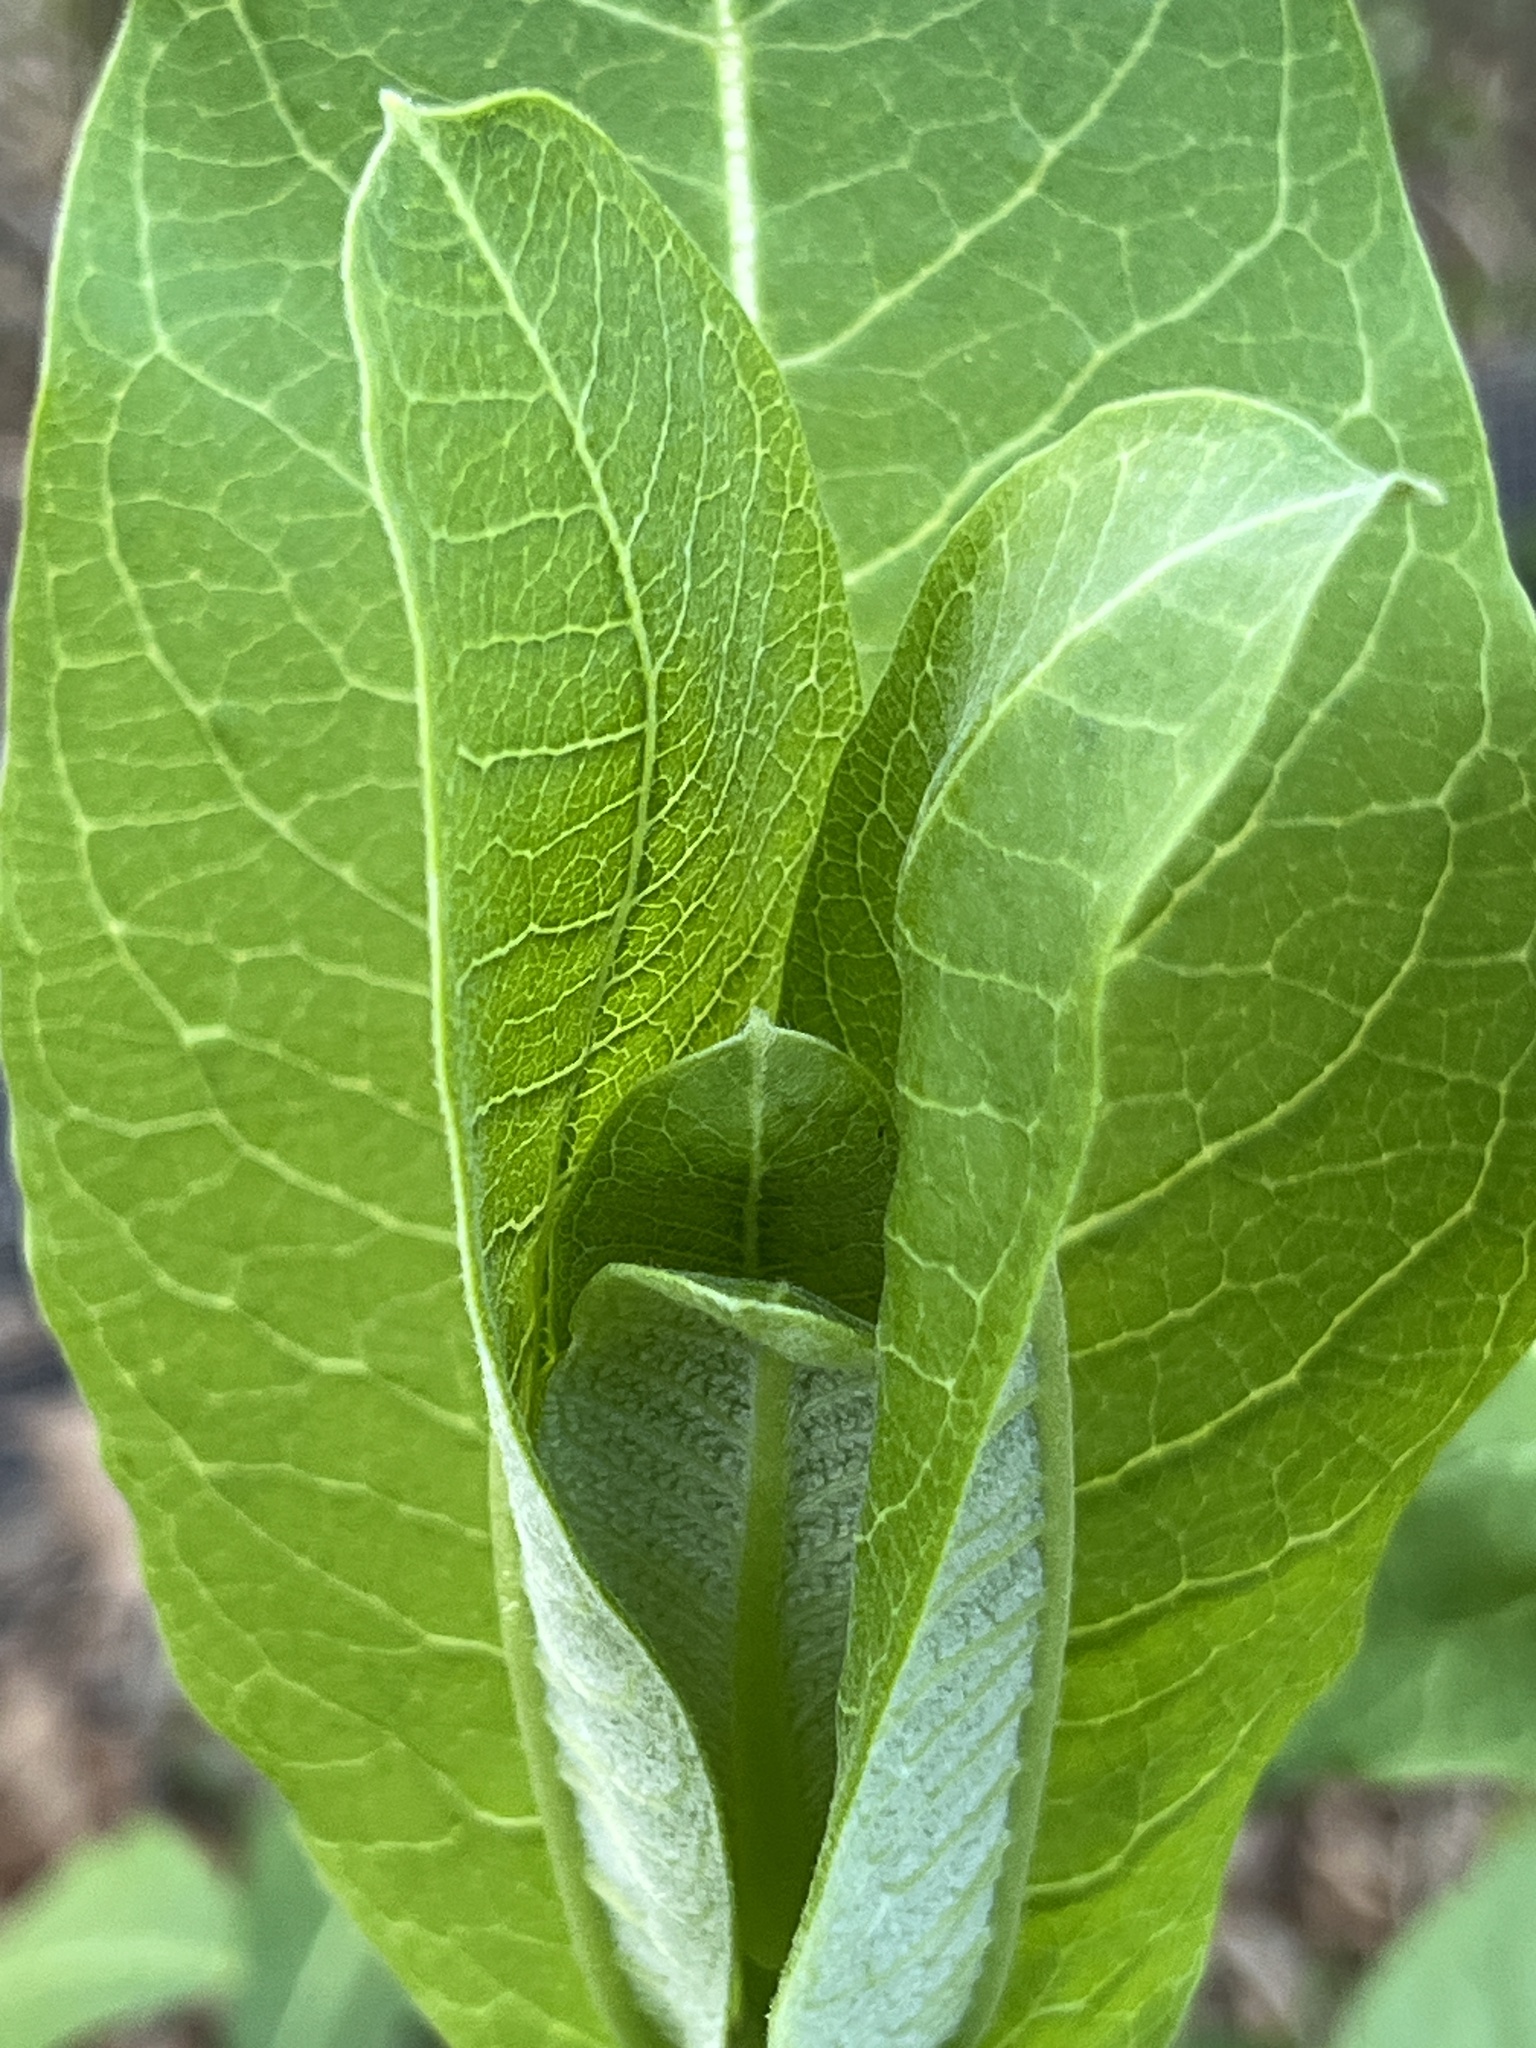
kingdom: Plantae
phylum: Tracheophyta
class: Magnoliopsida
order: Gentianales
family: Apocynaceae
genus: Asclepias
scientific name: Asclepias syriaca
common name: Common milkweed
